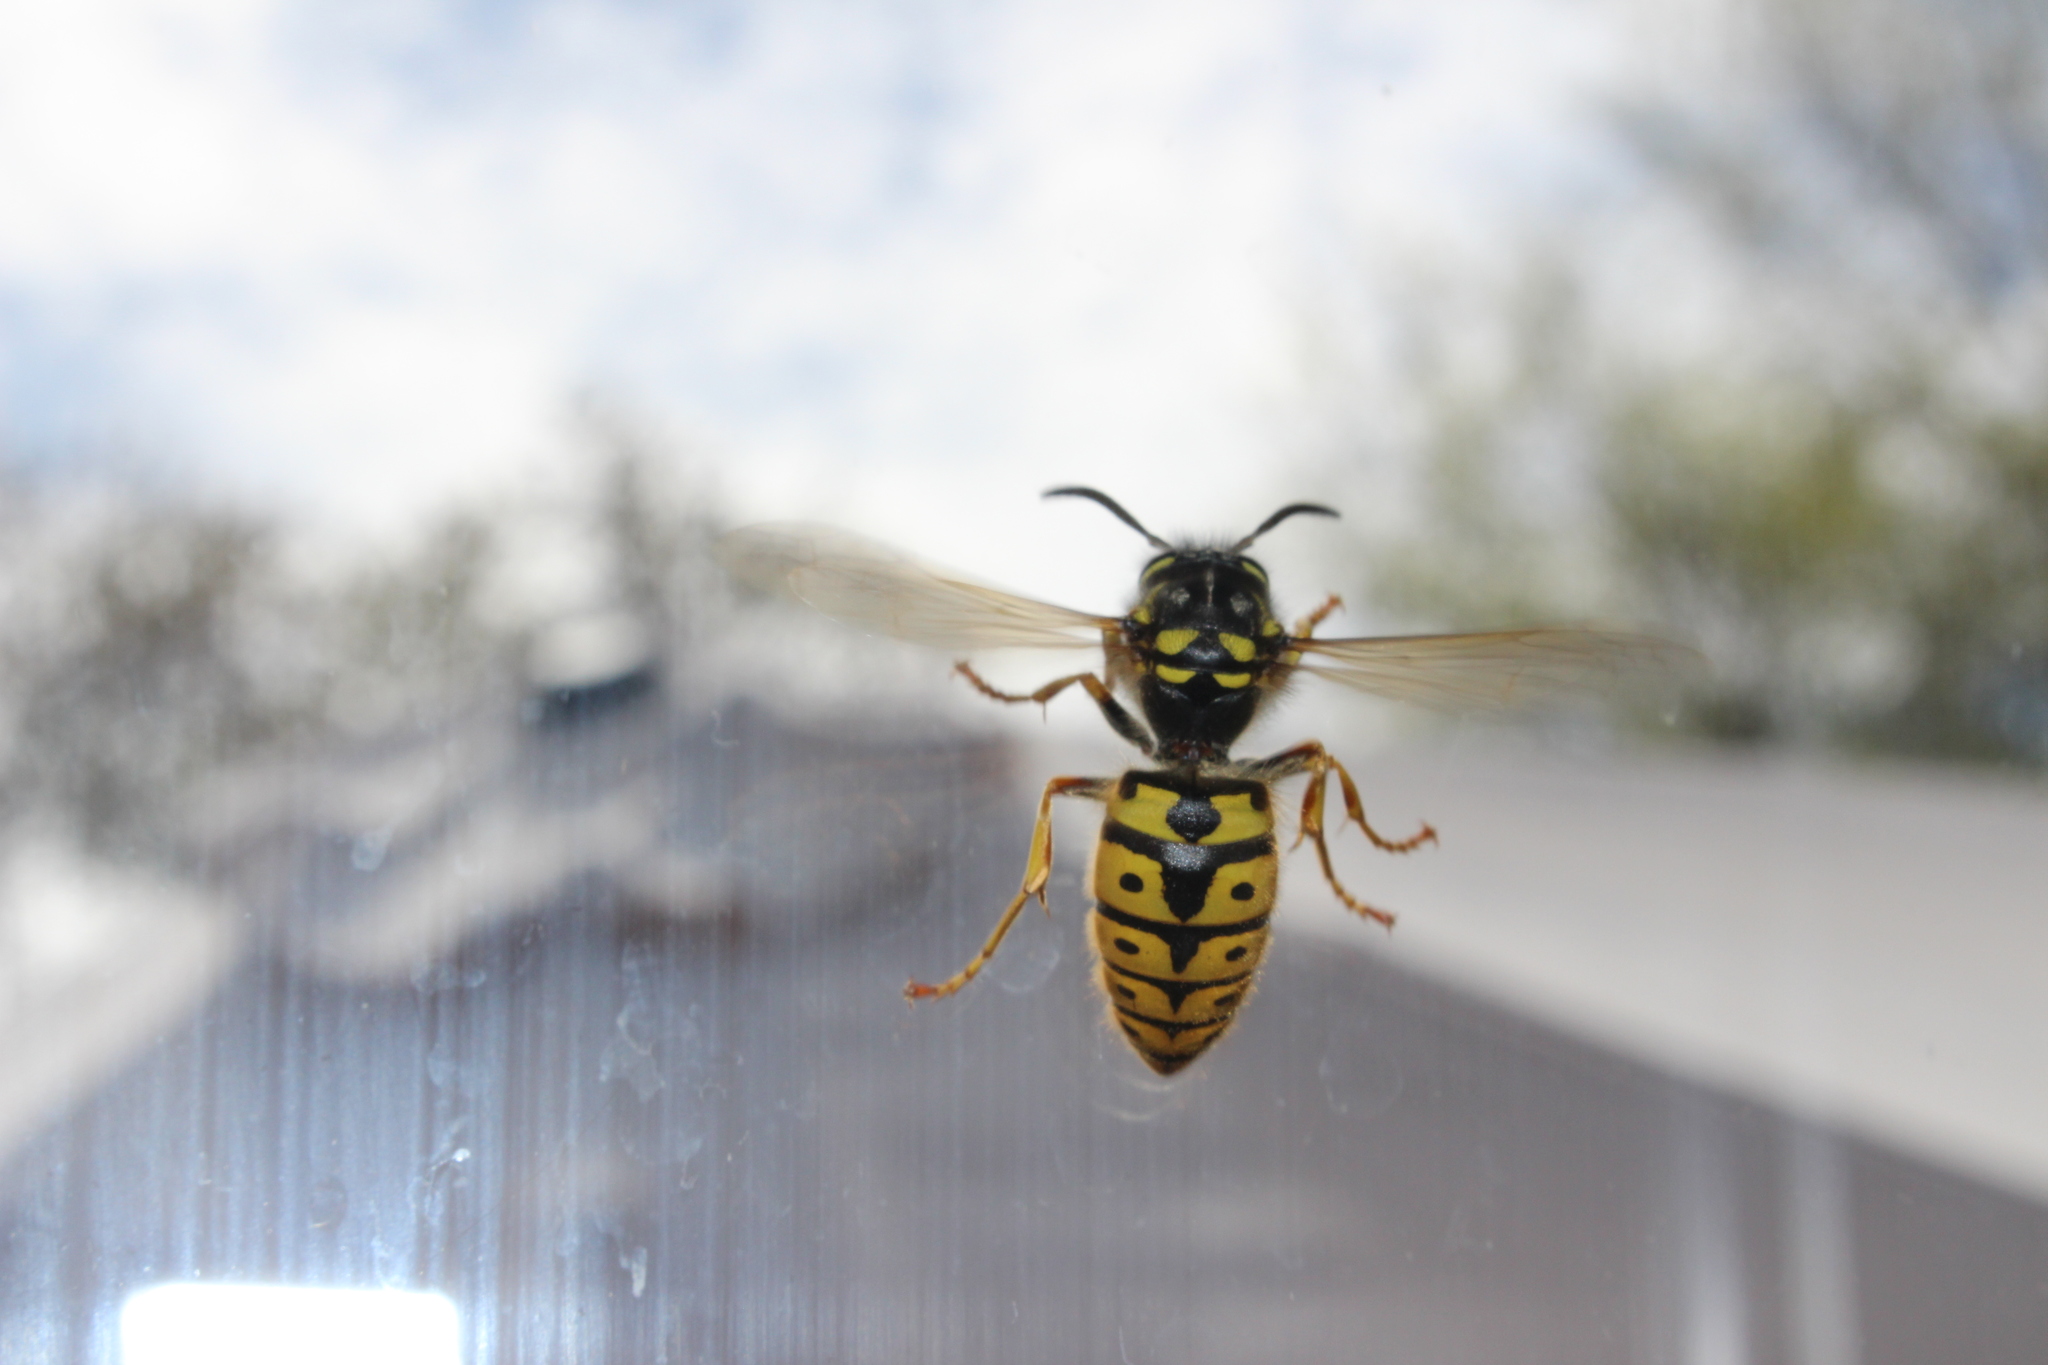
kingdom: Animalia
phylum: Arthropoda
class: Insecta
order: Hymenoptera
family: Vespidae
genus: Vespula
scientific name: Vespula germanica
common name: German wasp
